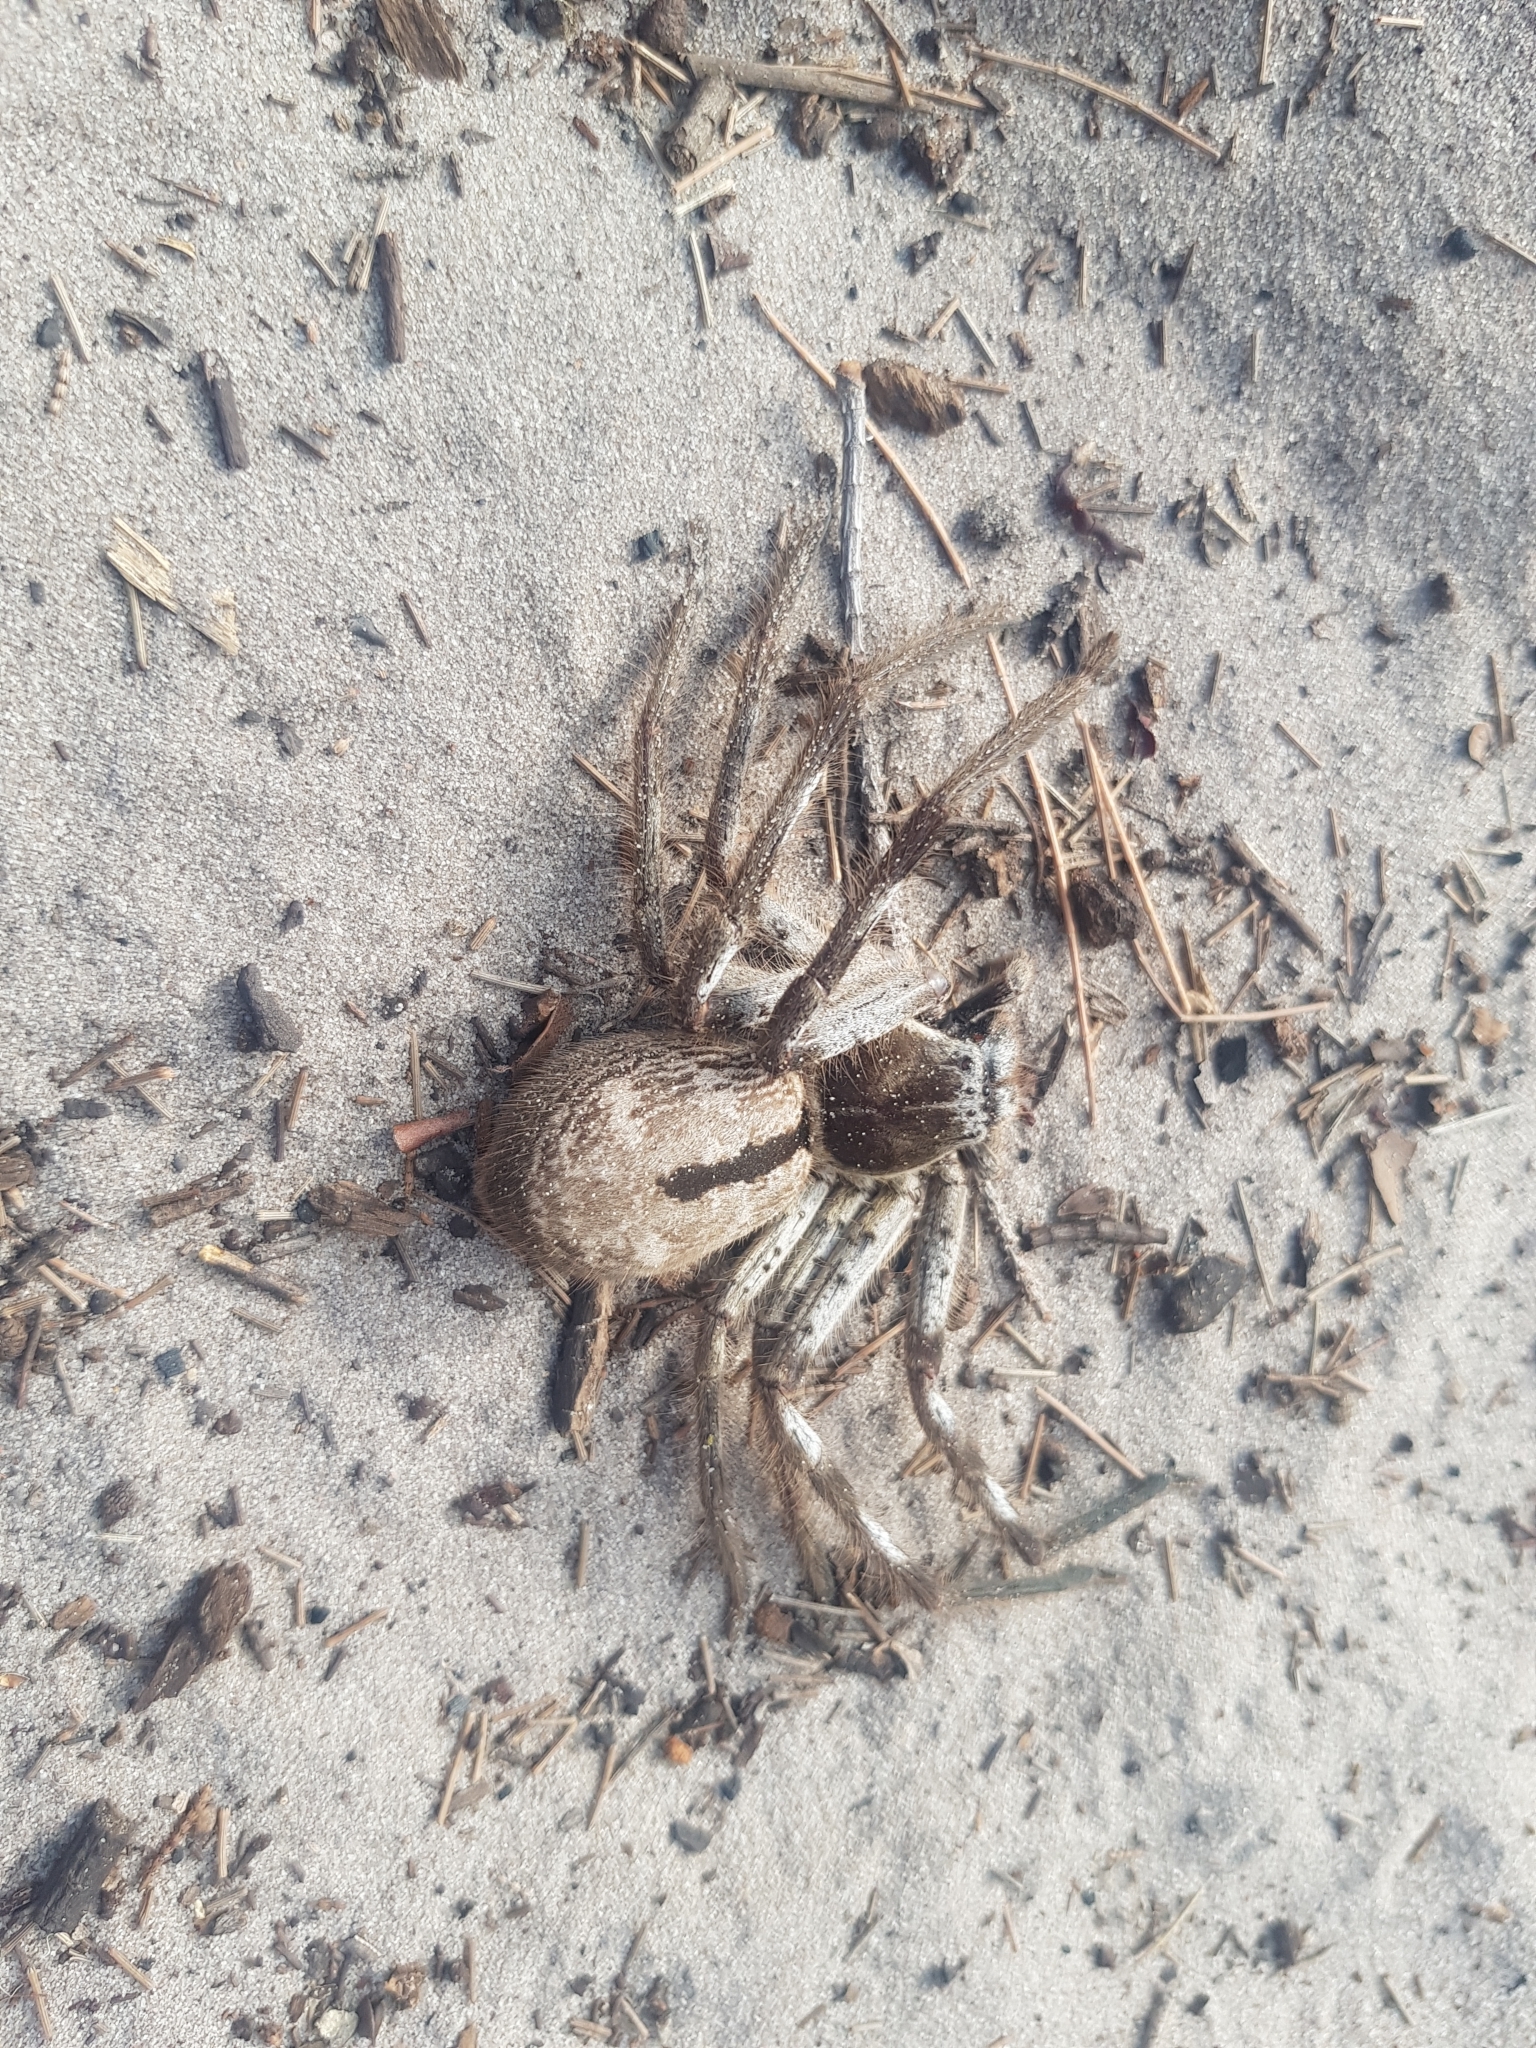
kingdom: Animalia
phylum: Arthropoda
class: Arachnida
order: Araneae
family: Sparassidae
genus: Holconia
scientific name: Holconia immanis
